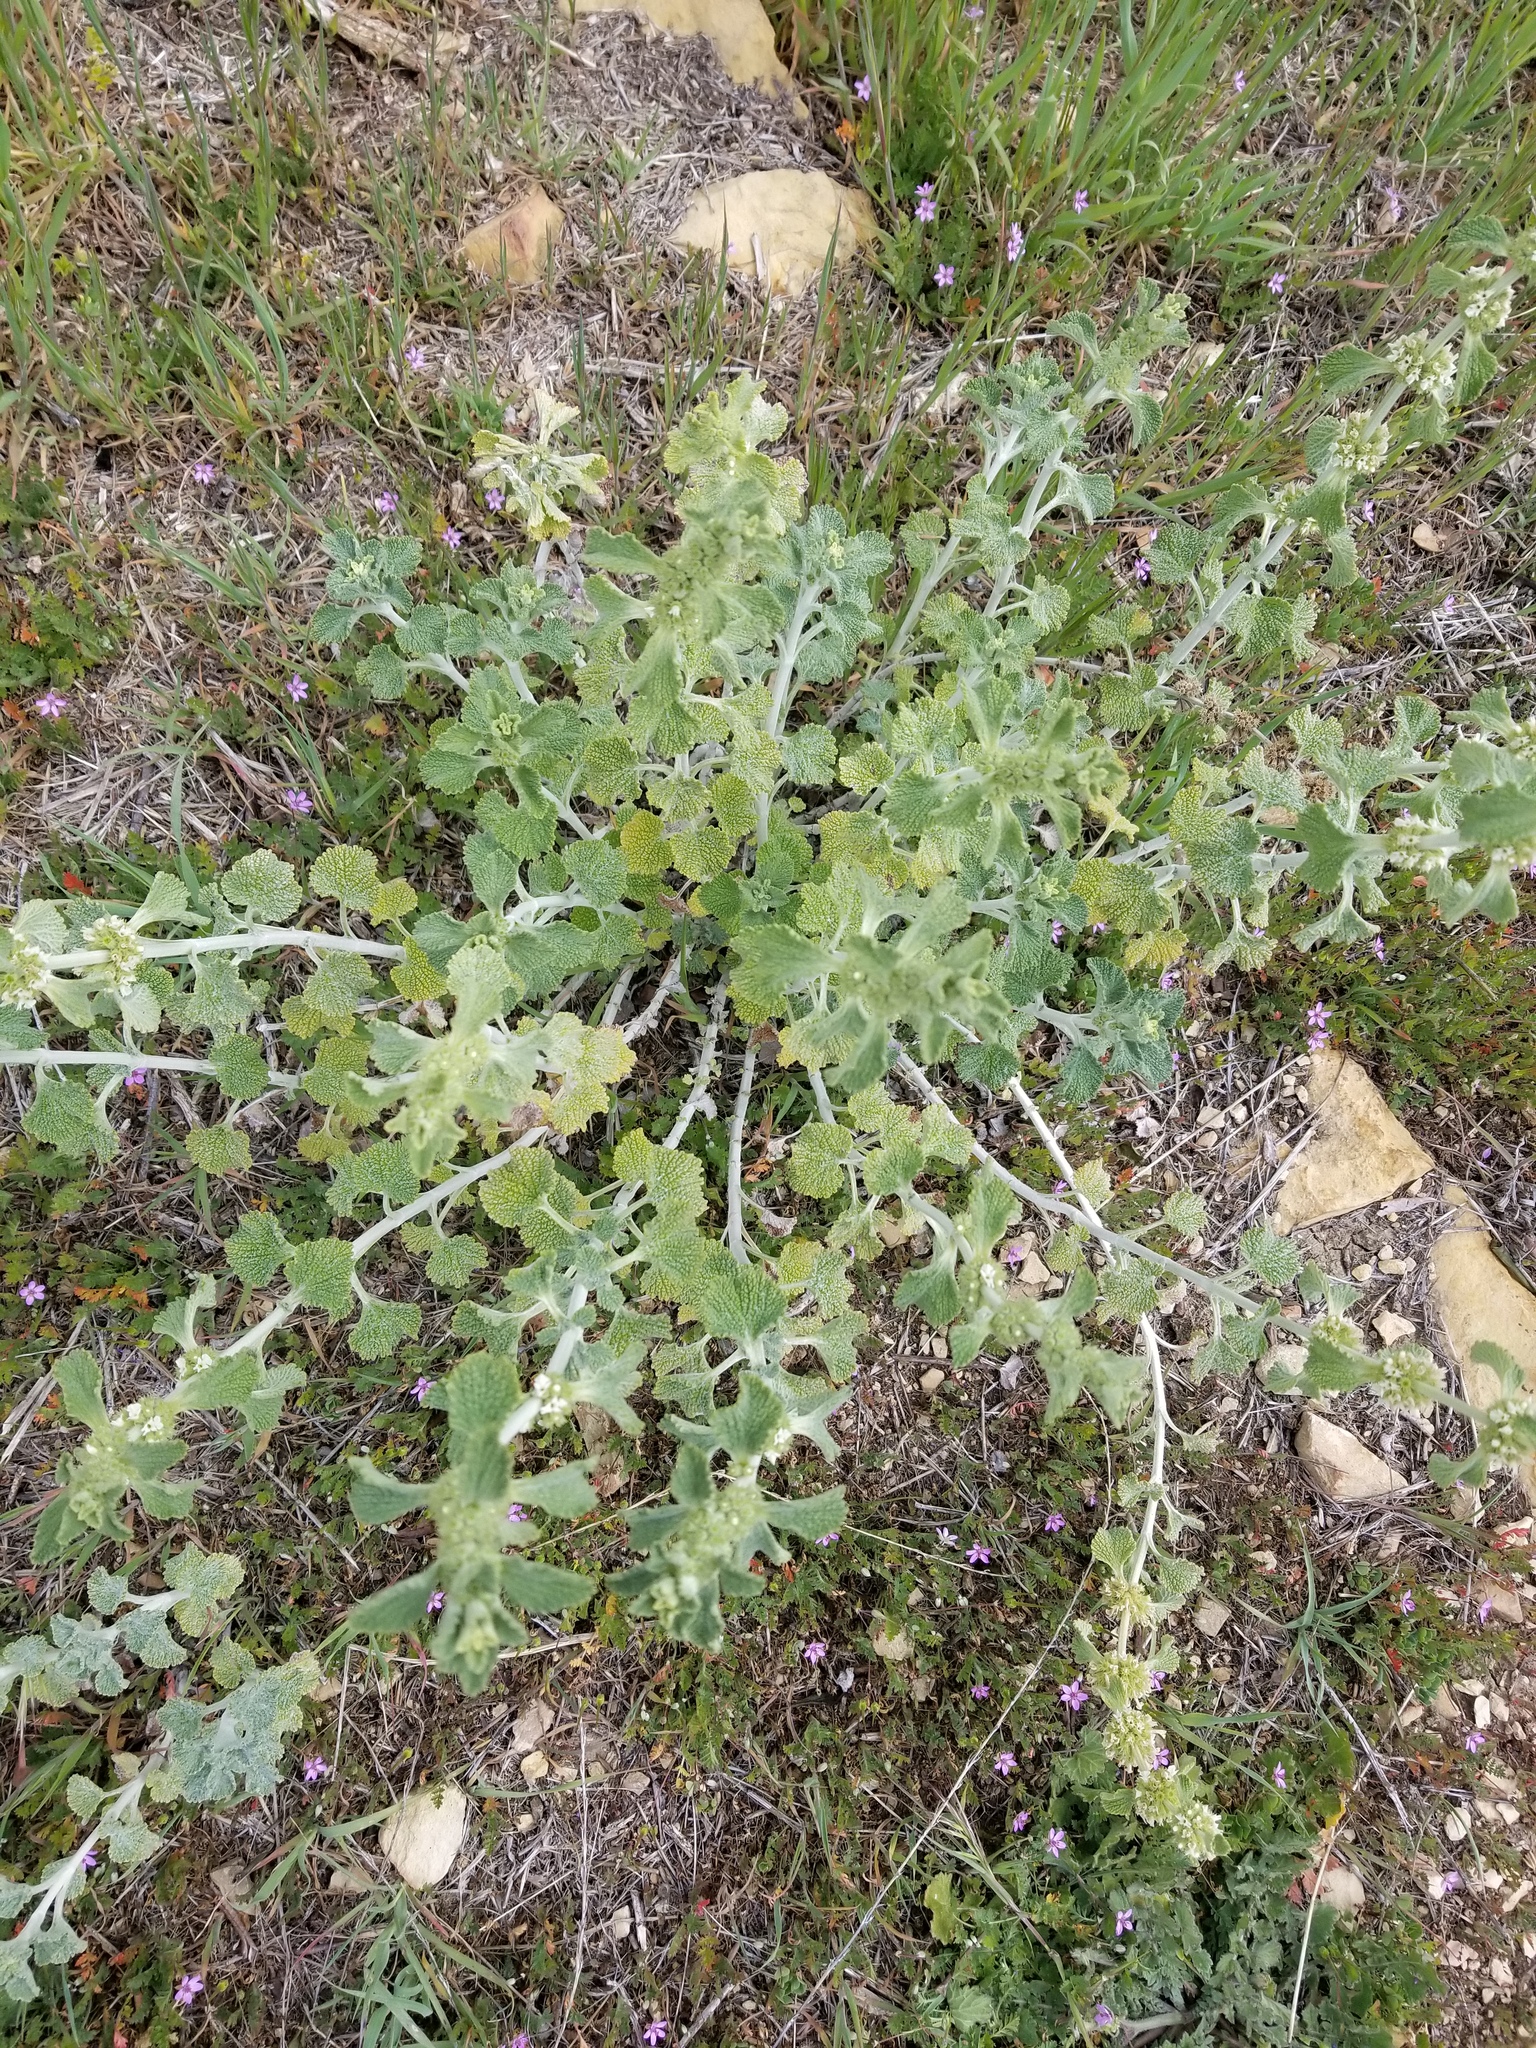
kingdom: Plantae
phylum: Tracheophyta
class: Magnoliopsida
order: Lamiales
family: Lamiaceae
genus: Marrubium
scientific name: Marrubium vulgare
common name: Horehound
